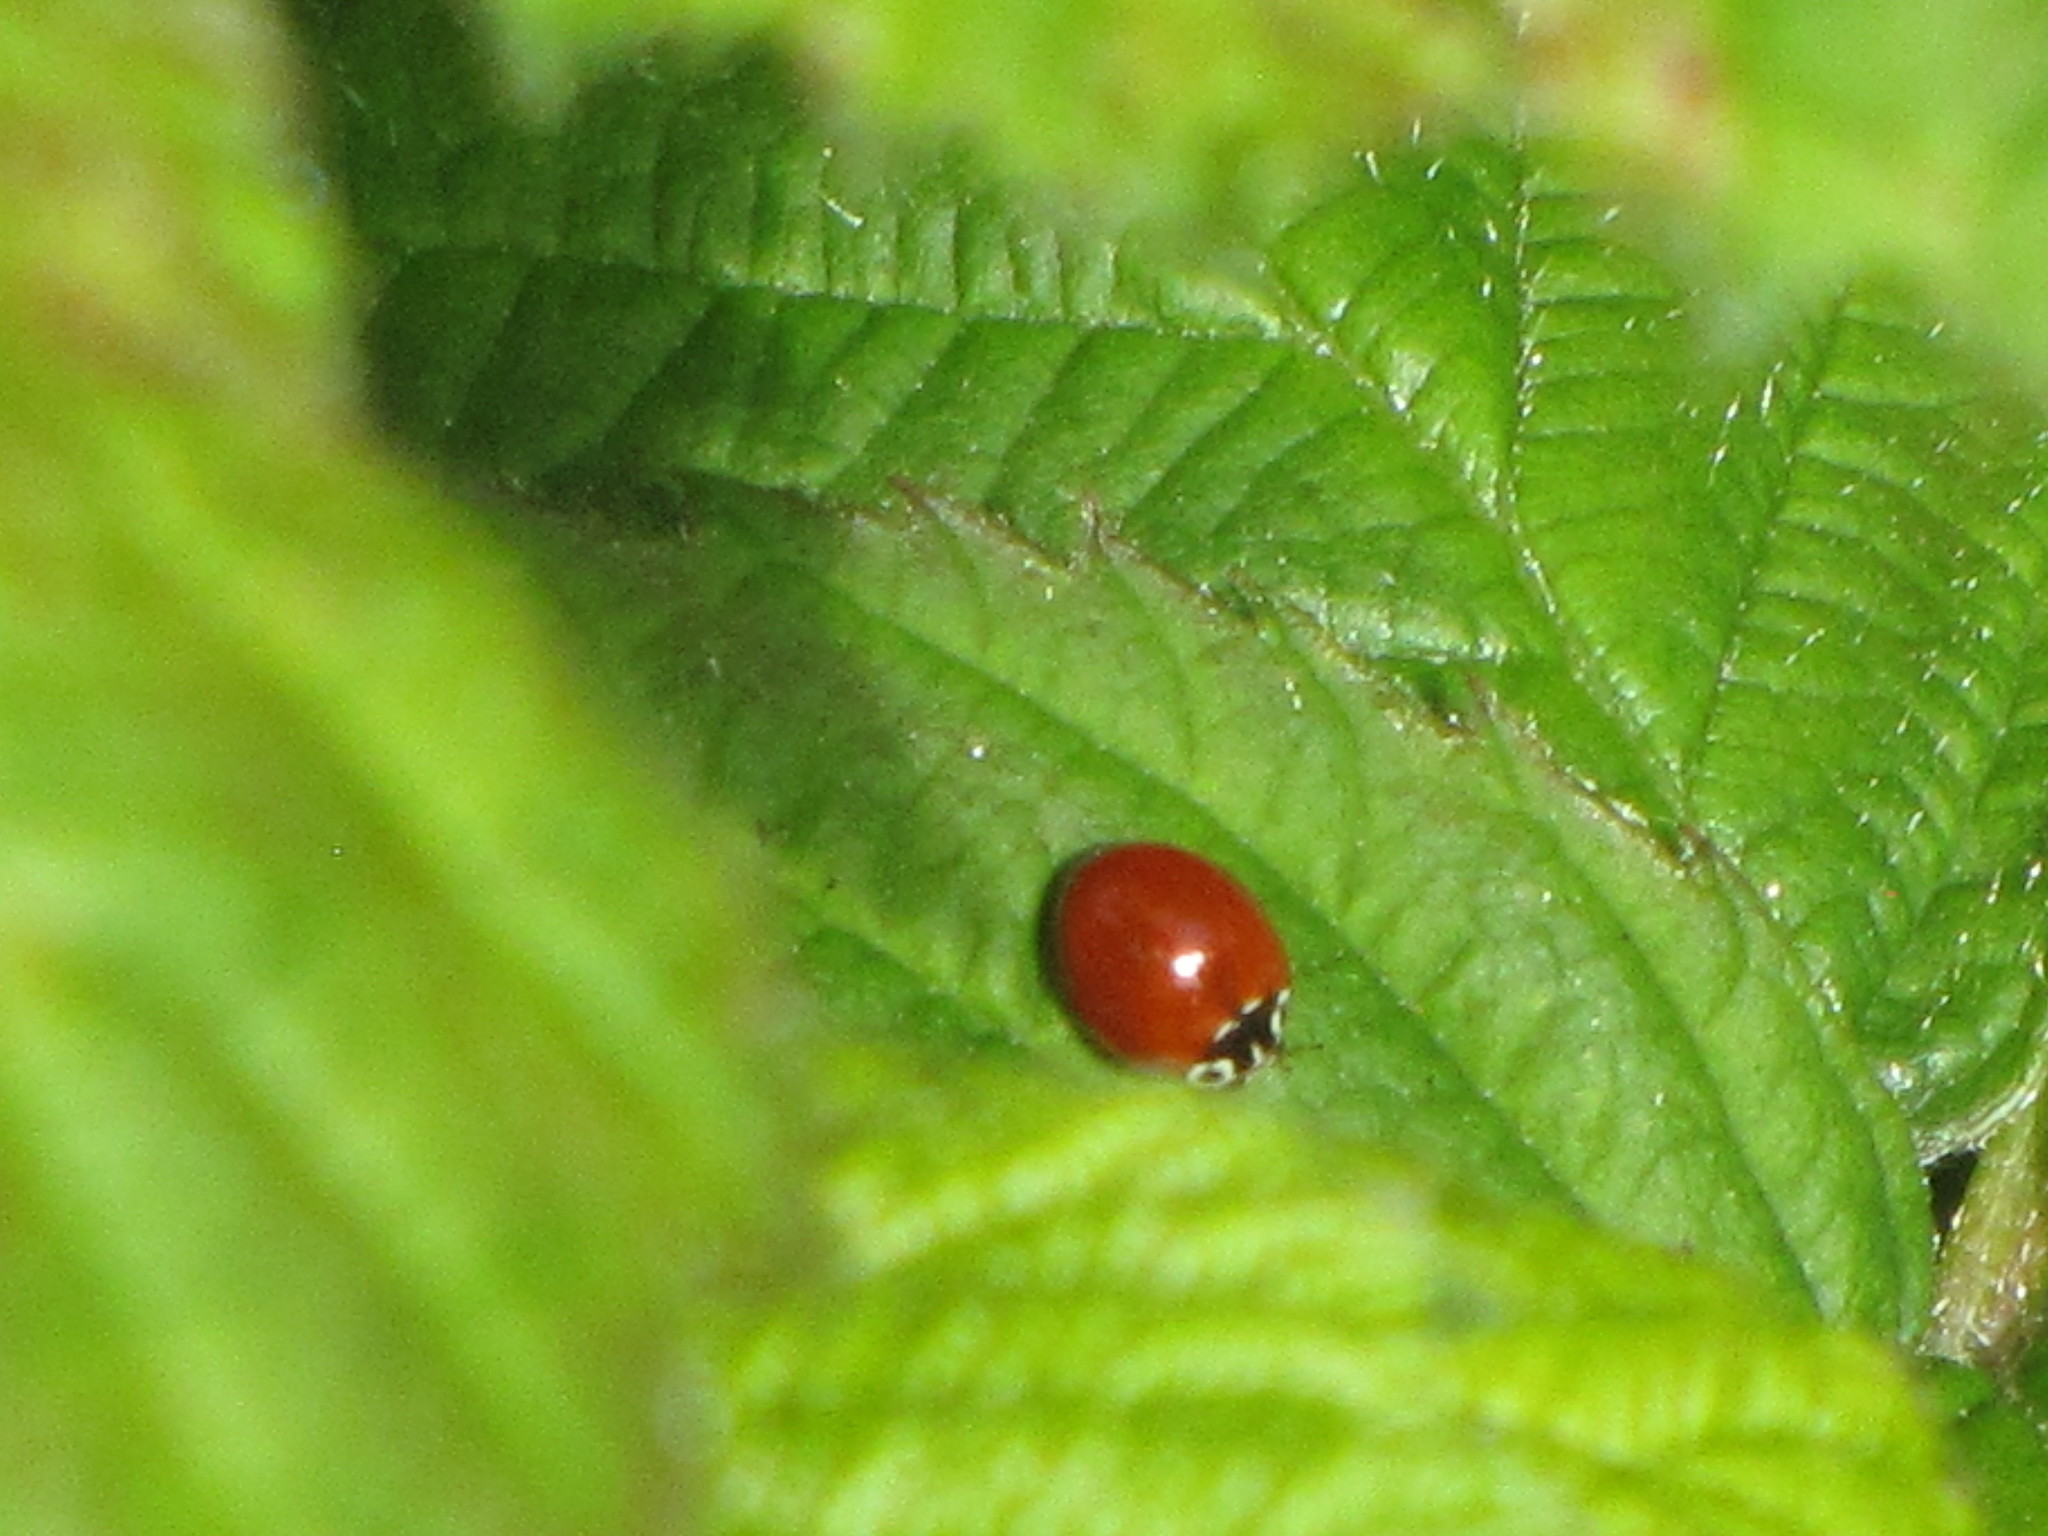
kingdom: Animalia
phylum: Arthropoda
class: Insecta
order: Coleoptera
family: Coccinellidae
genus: Cycloneda
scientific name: Cycloneda polita
